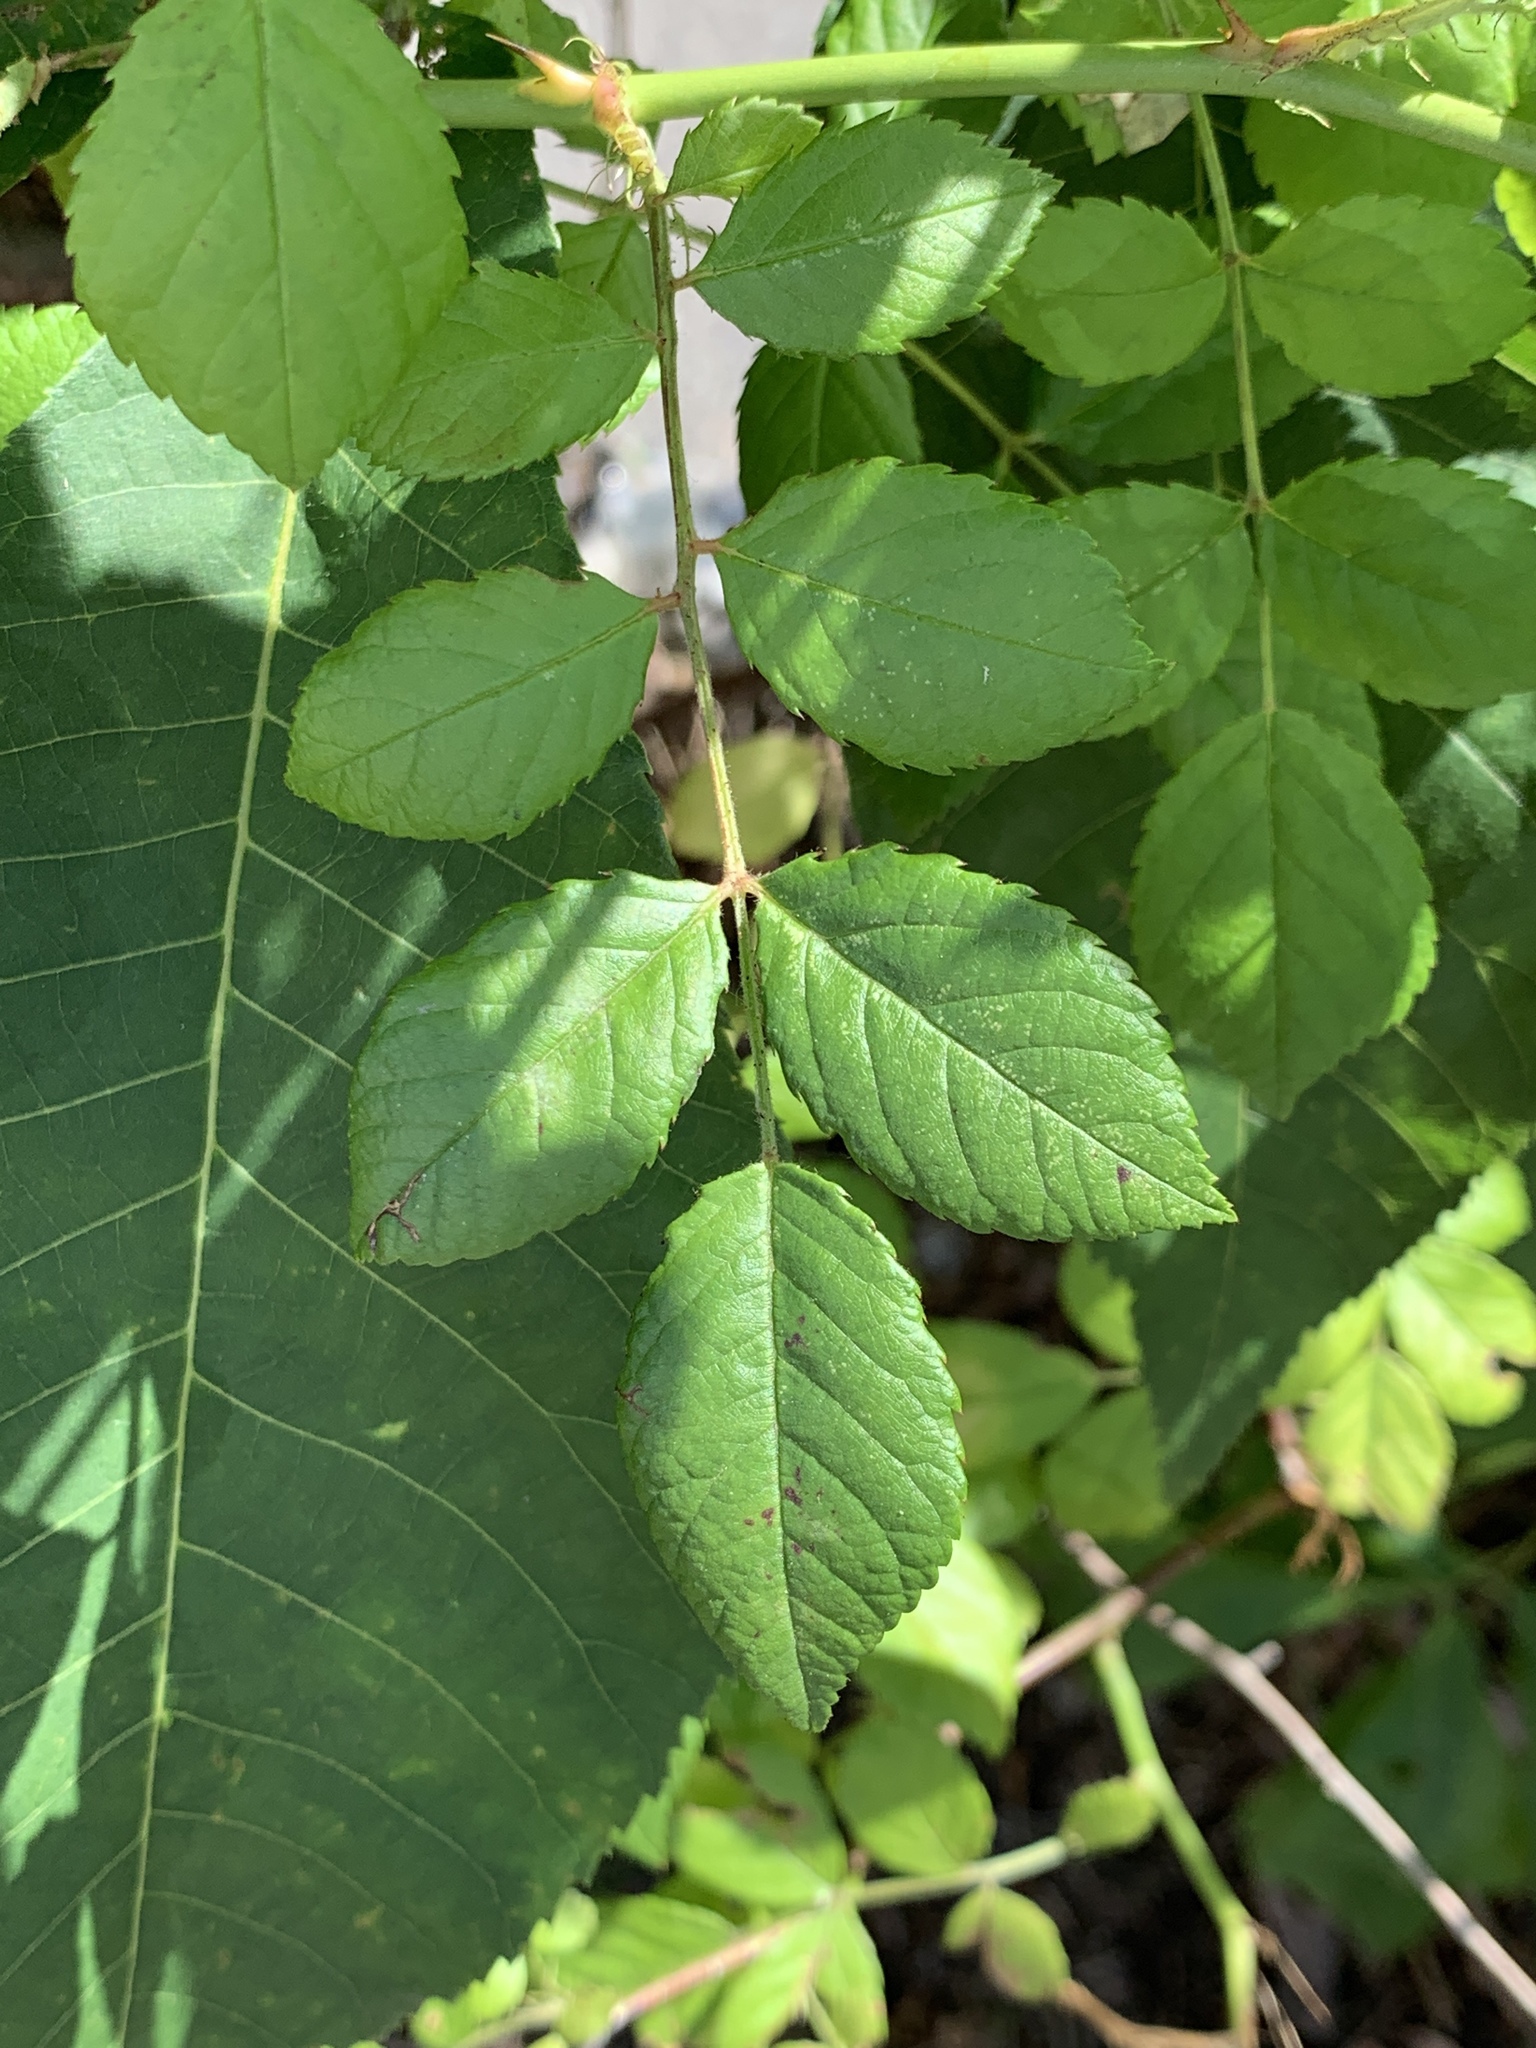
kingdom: Plantae
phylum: Tracheophyta
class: Magnoliopsida
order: Rosales
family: Rosaceae
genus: Rosa
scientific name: Rosa multiflora
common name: Multiflora rose
